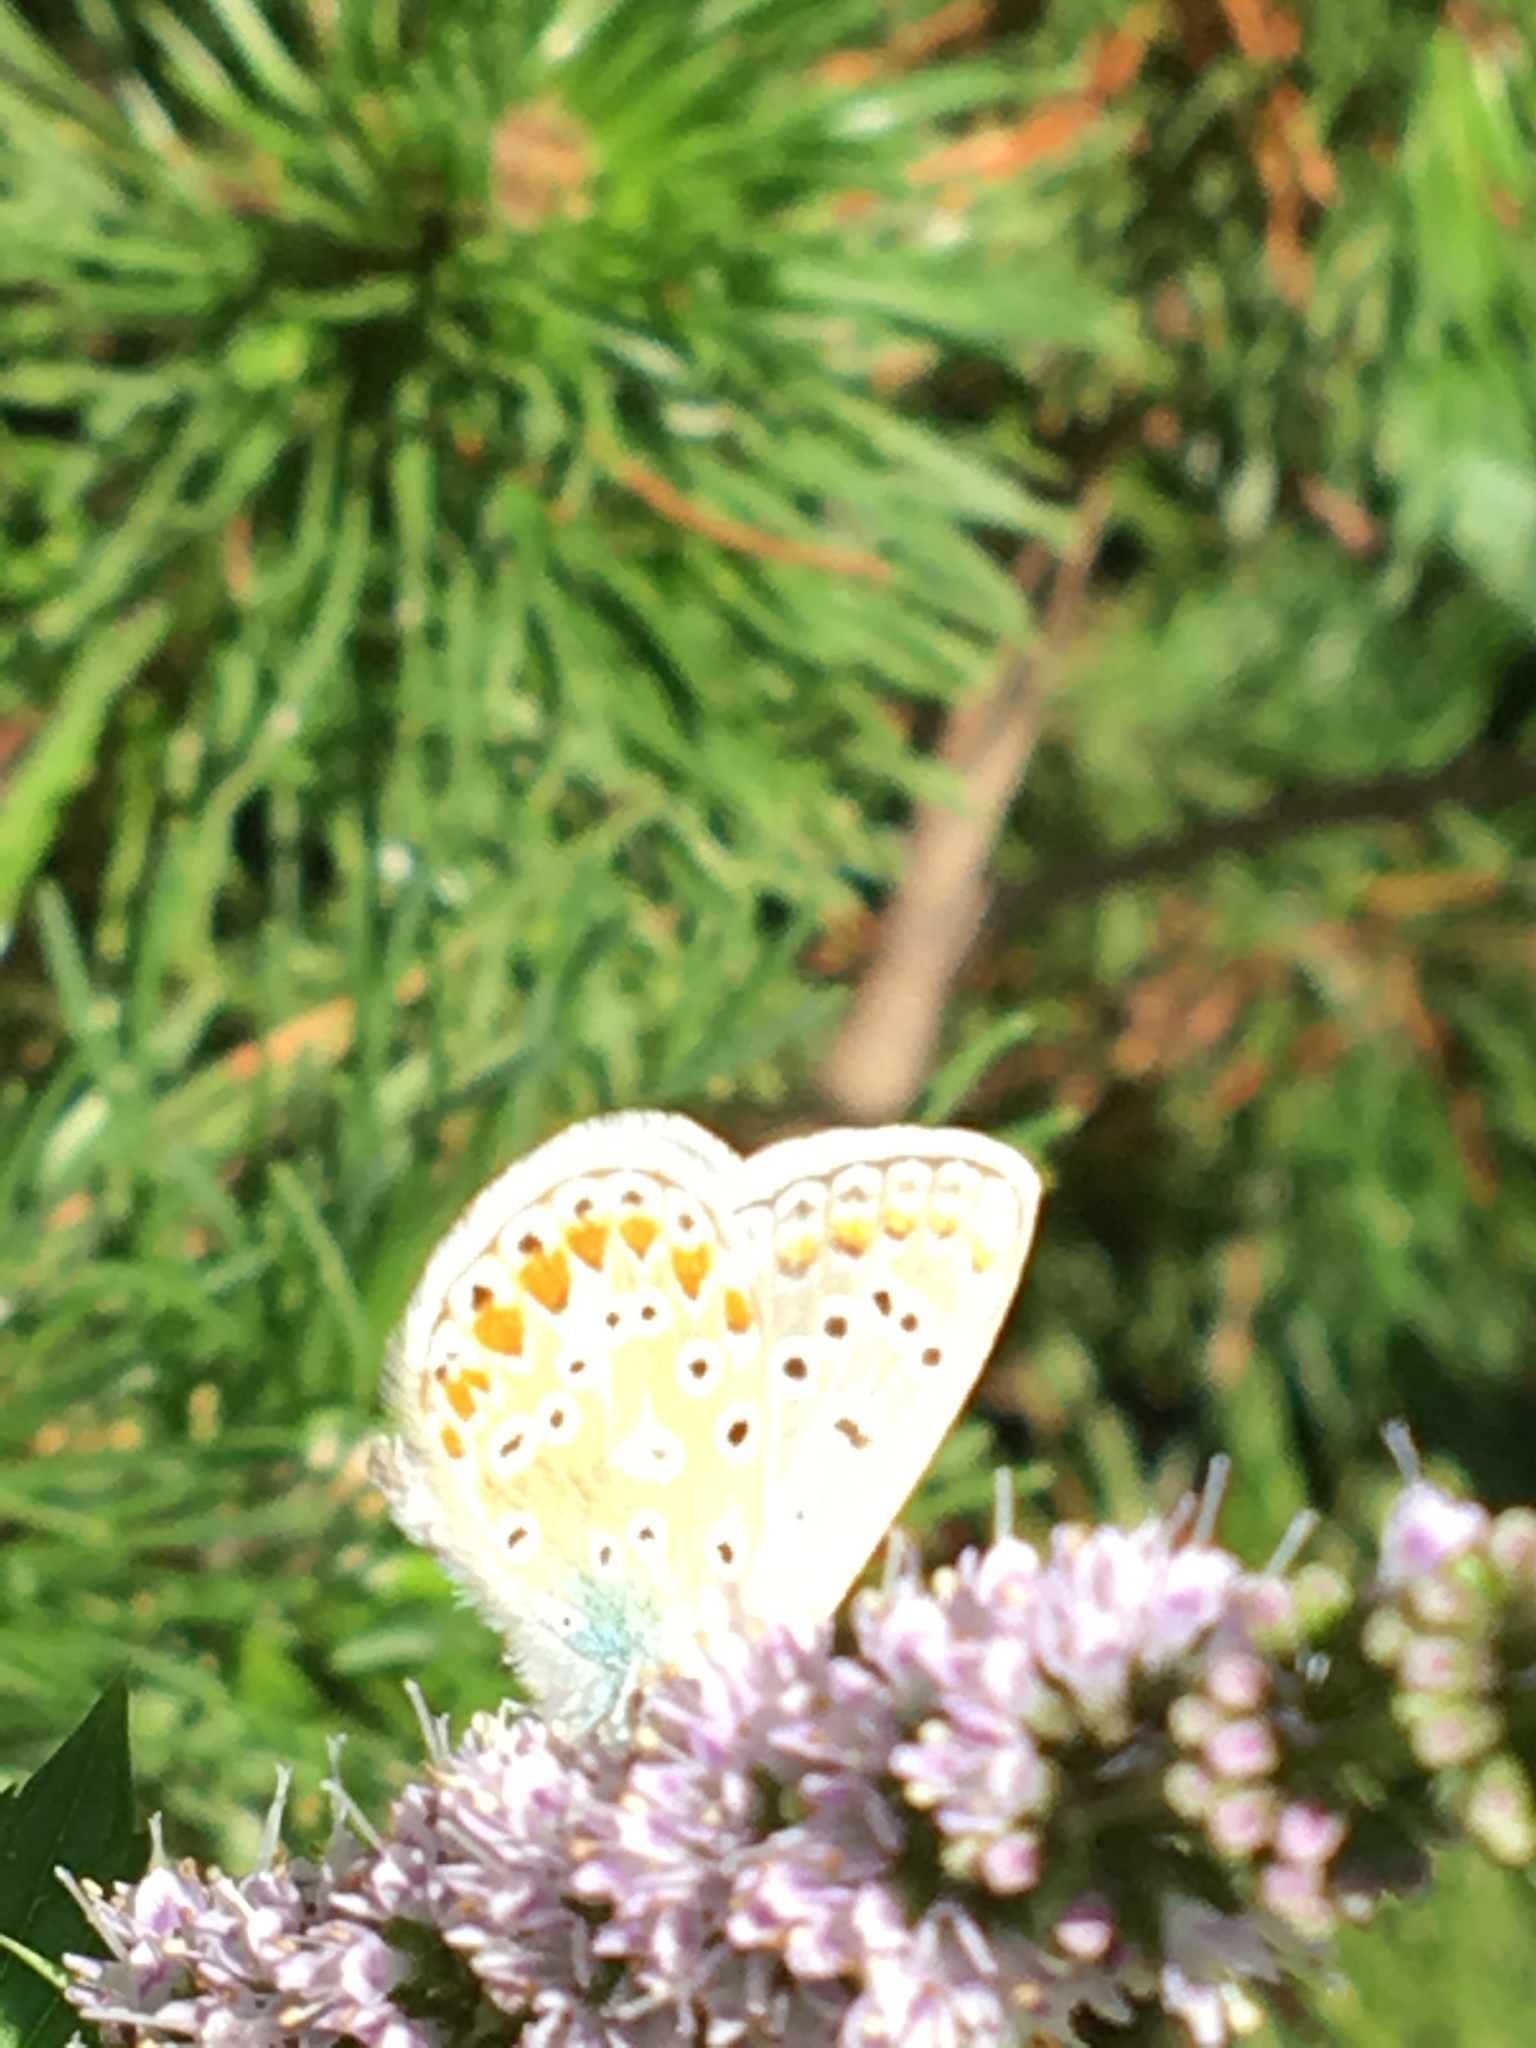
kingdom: Animalia
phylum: Arthropoda
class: Insecta
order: Lepidoptera
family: Lycaenidae
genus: Polyommatus
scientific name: Polyommatus icarus
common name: Common blue
